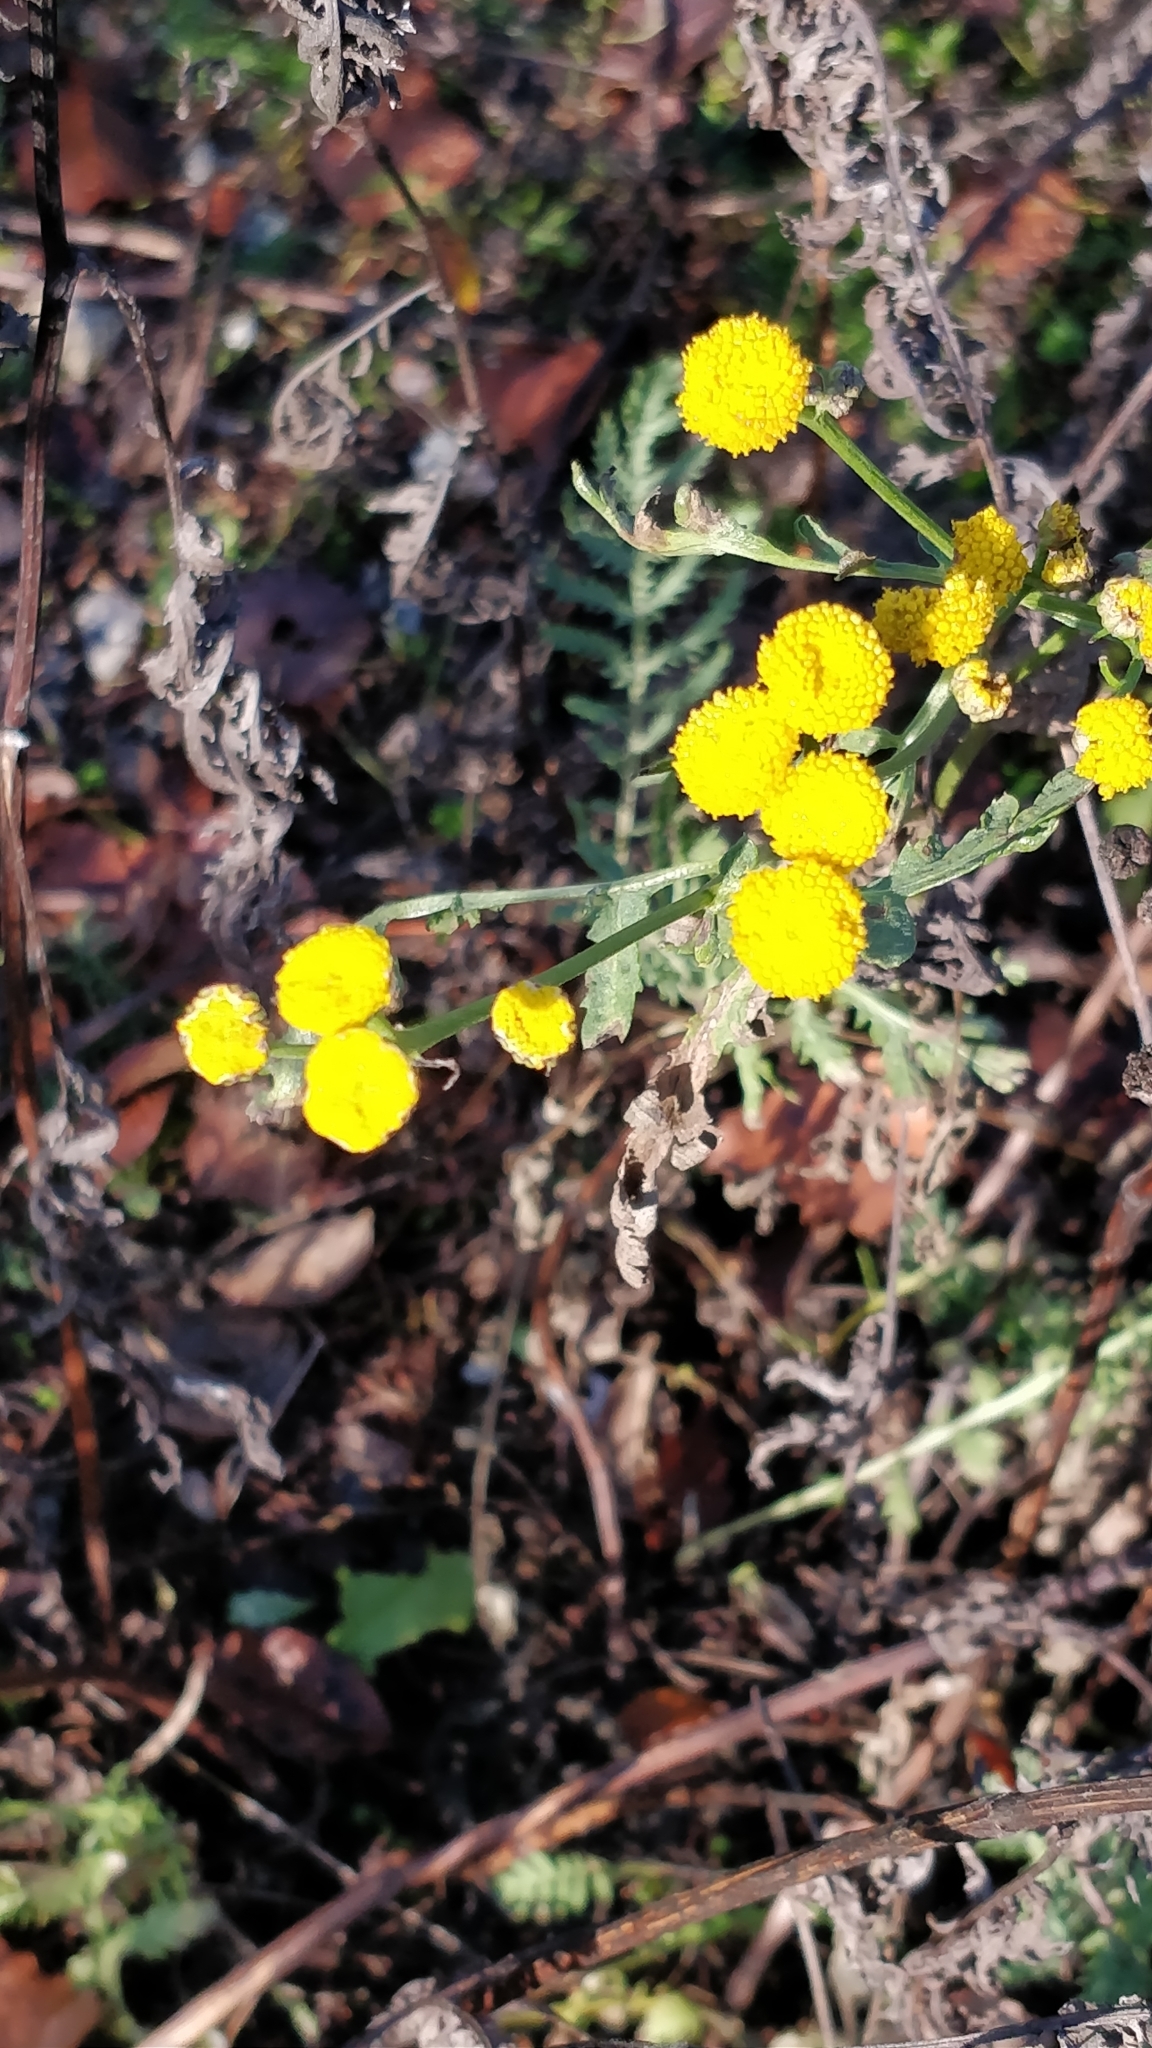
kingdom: Plantae
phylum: Tracheophyta
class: Magnoliopsida
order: Asterales
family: Asteraceae
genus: Tanacetum
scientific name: Tanacetum vulgare
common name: Common tansy
